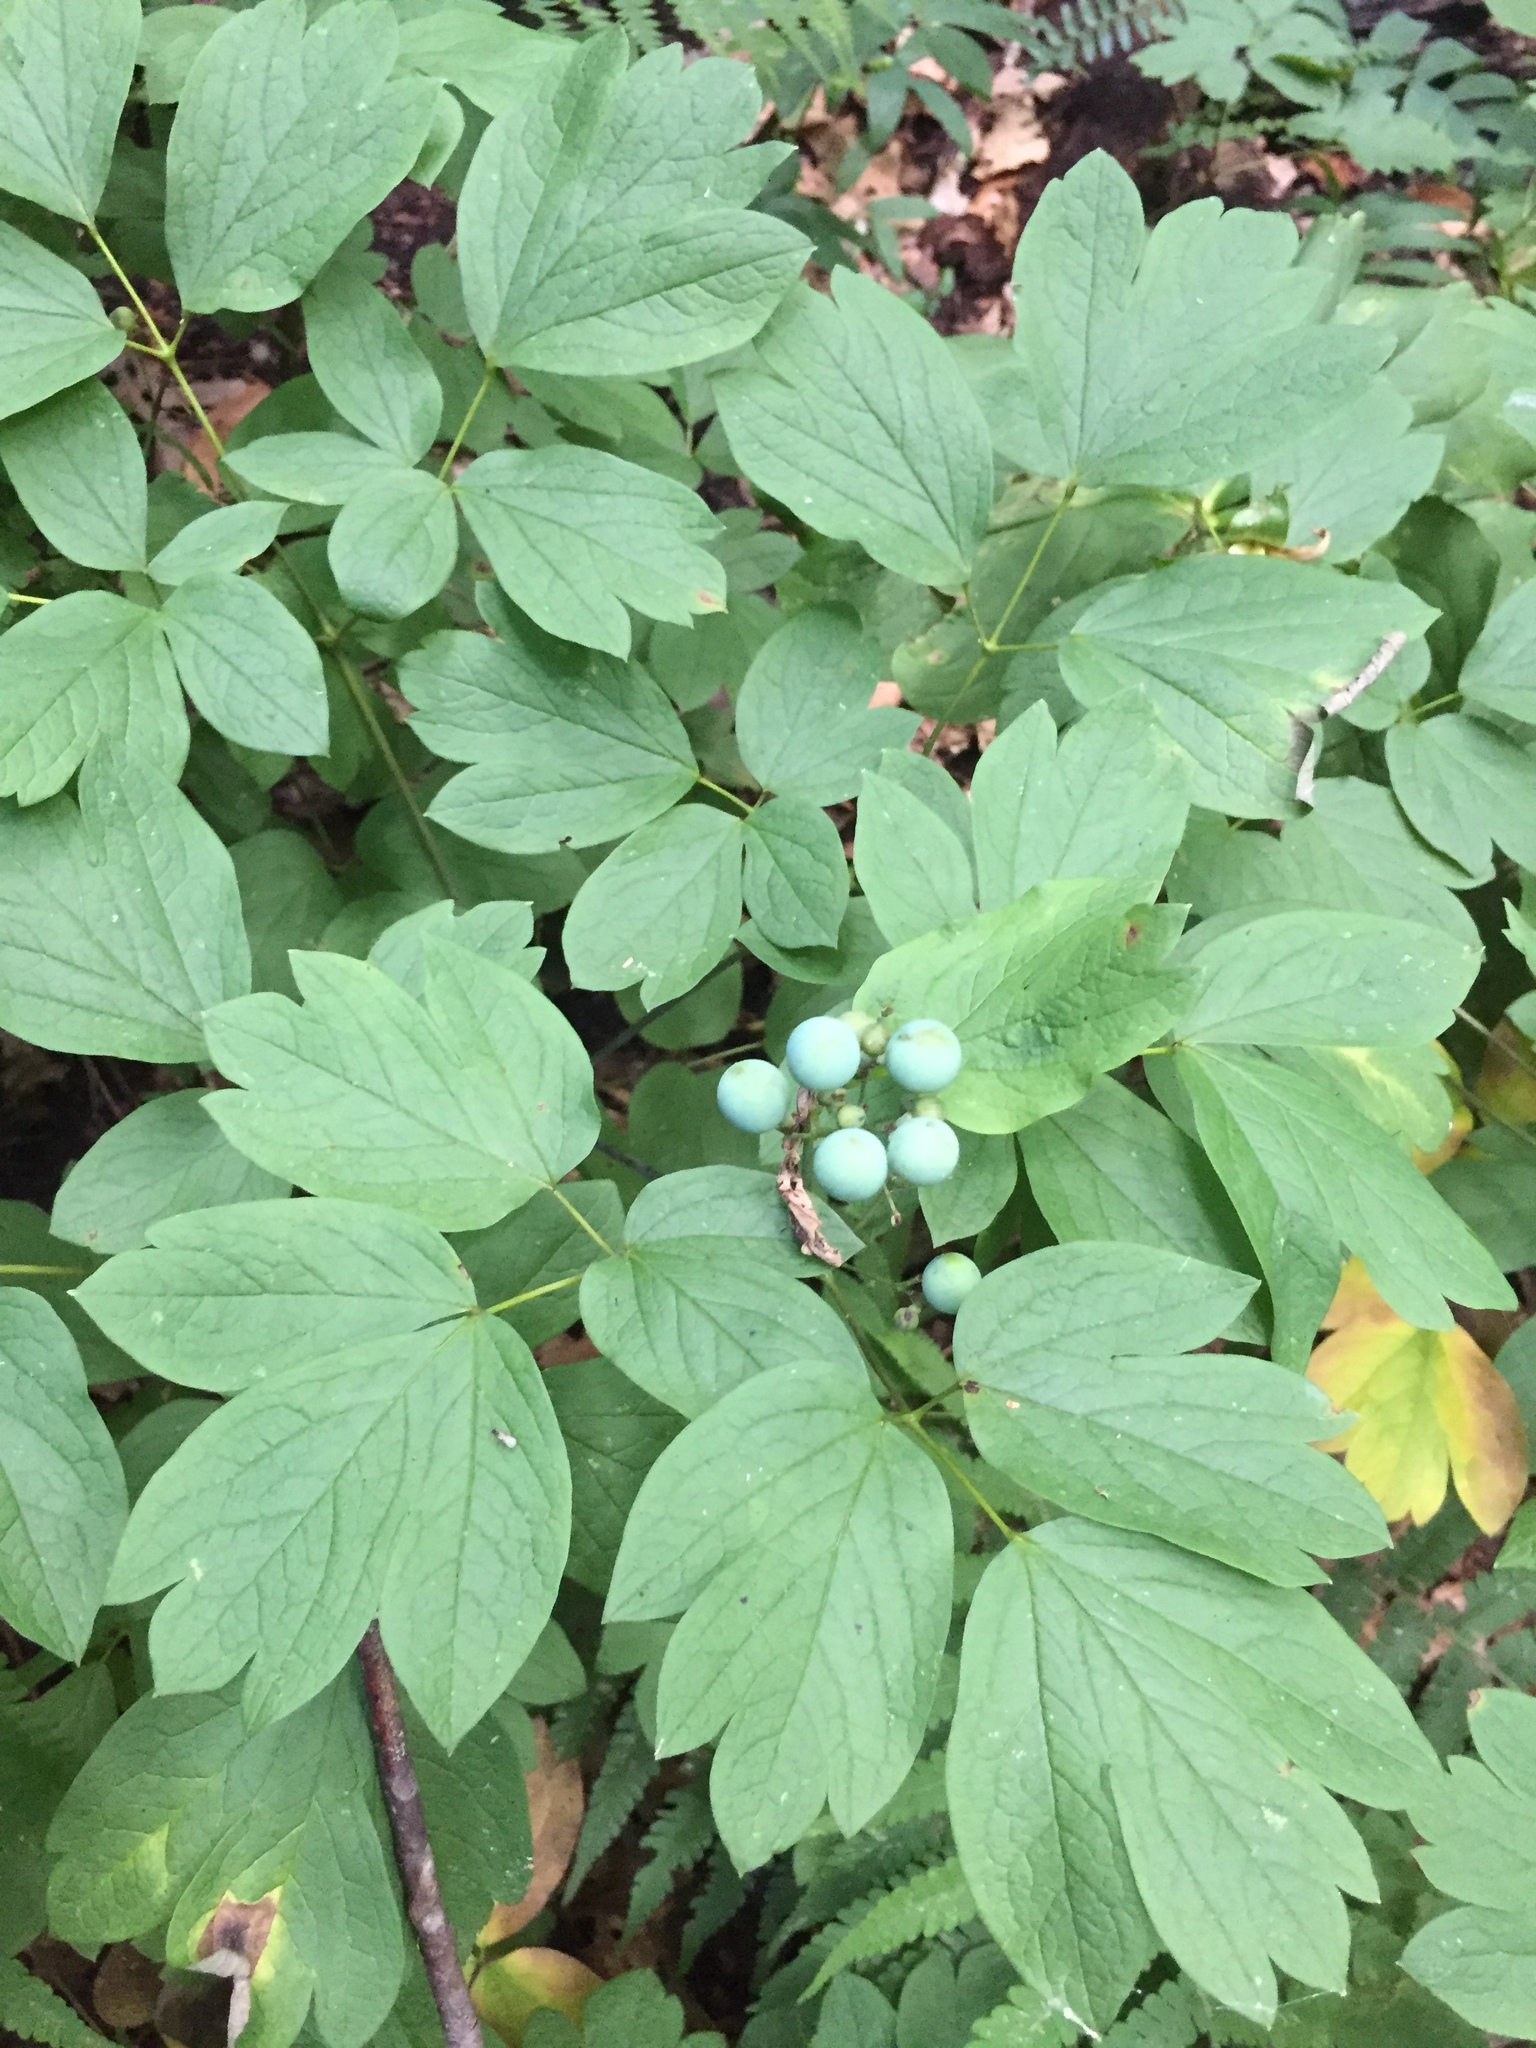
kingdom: Plantae
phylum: Tracheophyta
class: Magnoliopsida
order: Ranunculales
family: Berberidaceae
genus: Caulophyllum
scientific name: Caulophyllum thalictroides
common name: Blue cohosh
